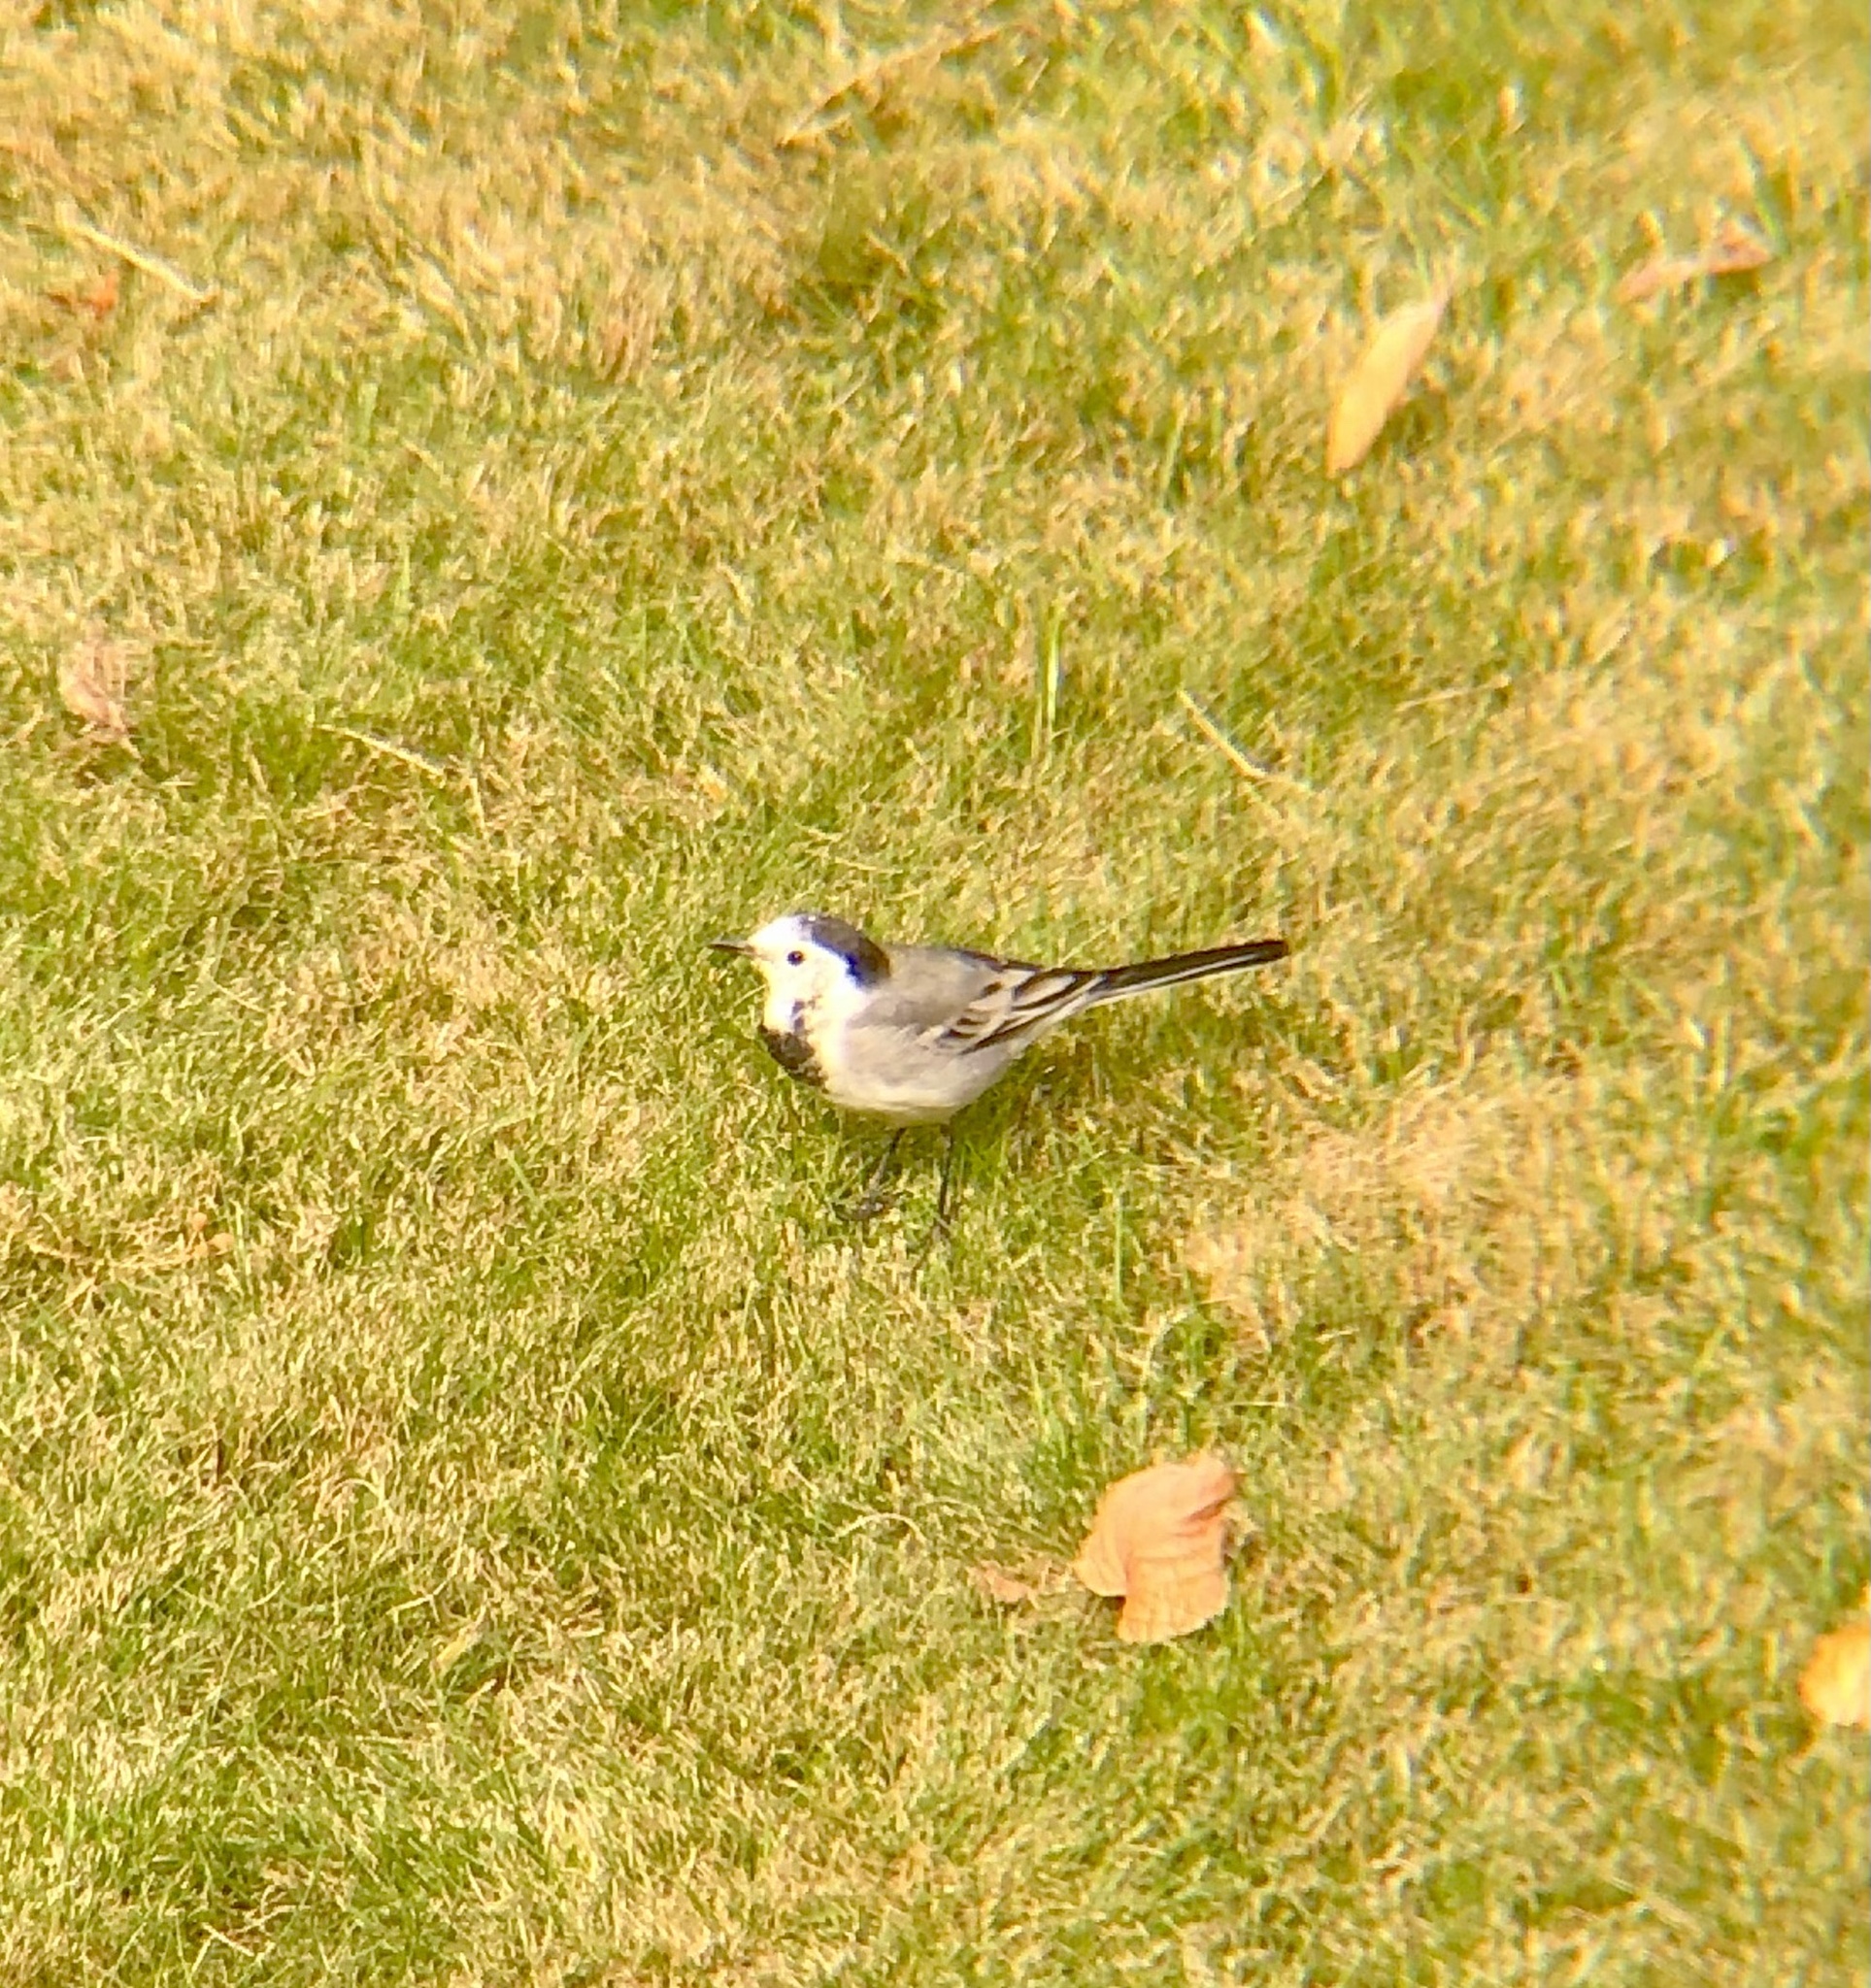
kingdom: Animalia
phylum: Chordata
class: Aves
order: Passeriformes
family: Motacillidae
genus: Motacilla
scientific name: Motacilla alba
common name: White wagtail
